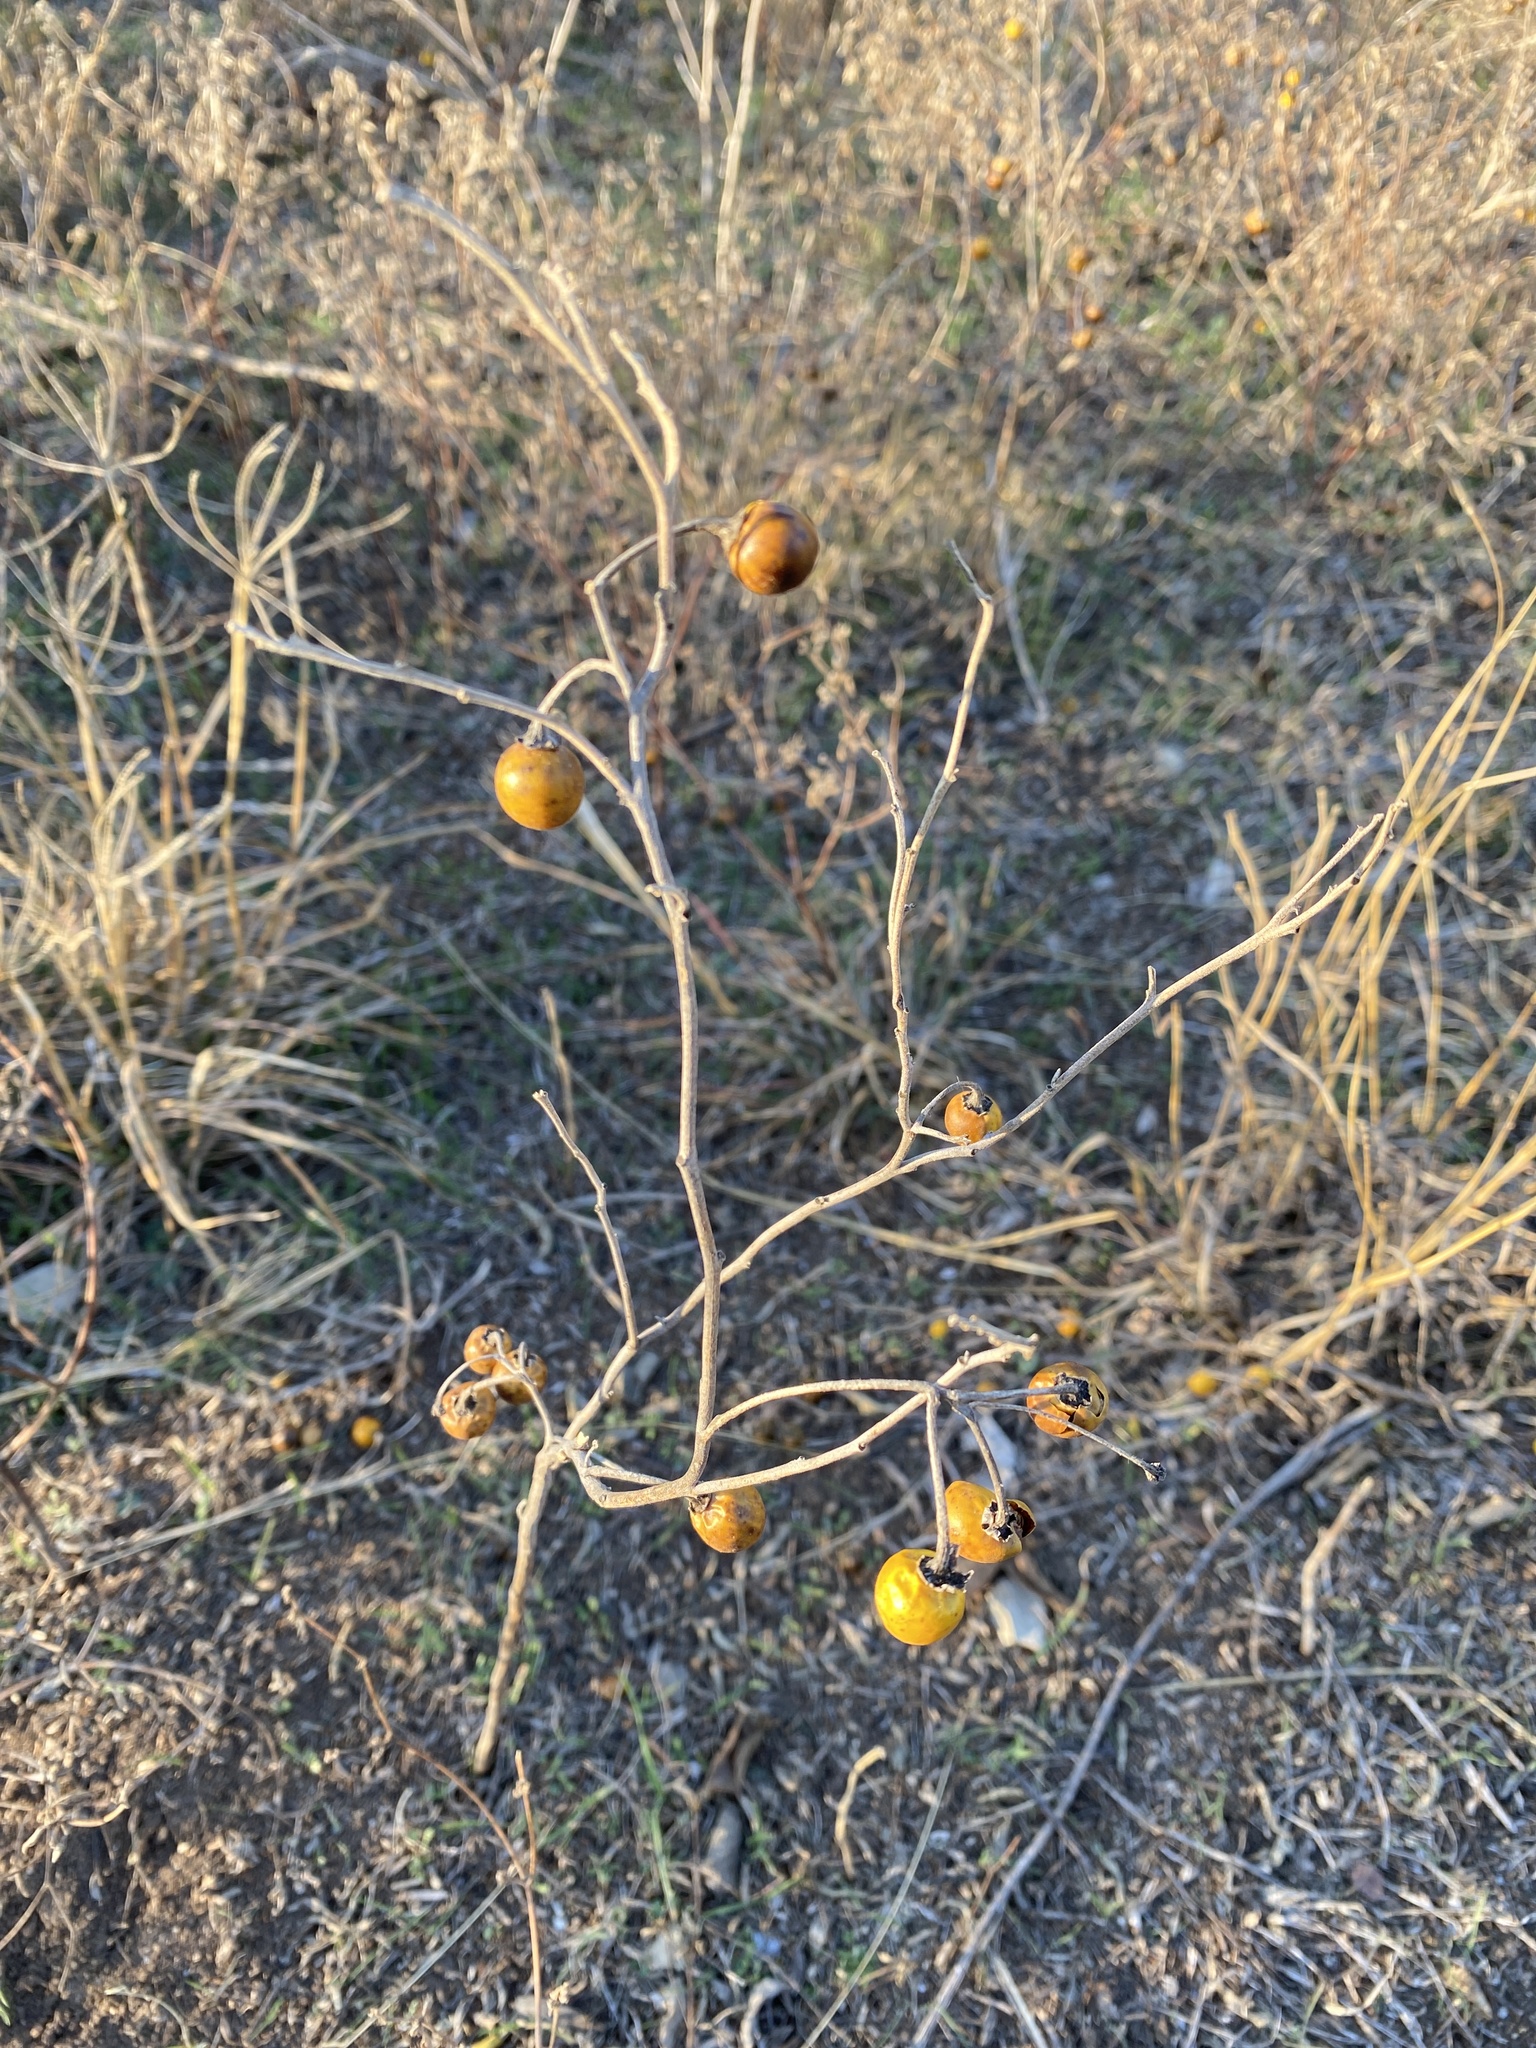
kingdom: Plantae
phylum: Tracheophyta
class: Magnoliopsida
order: Solanales
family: Solanaceae
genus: Solanum
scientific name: Solanum elaeagnifolium
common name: Silverleaf nightshade
